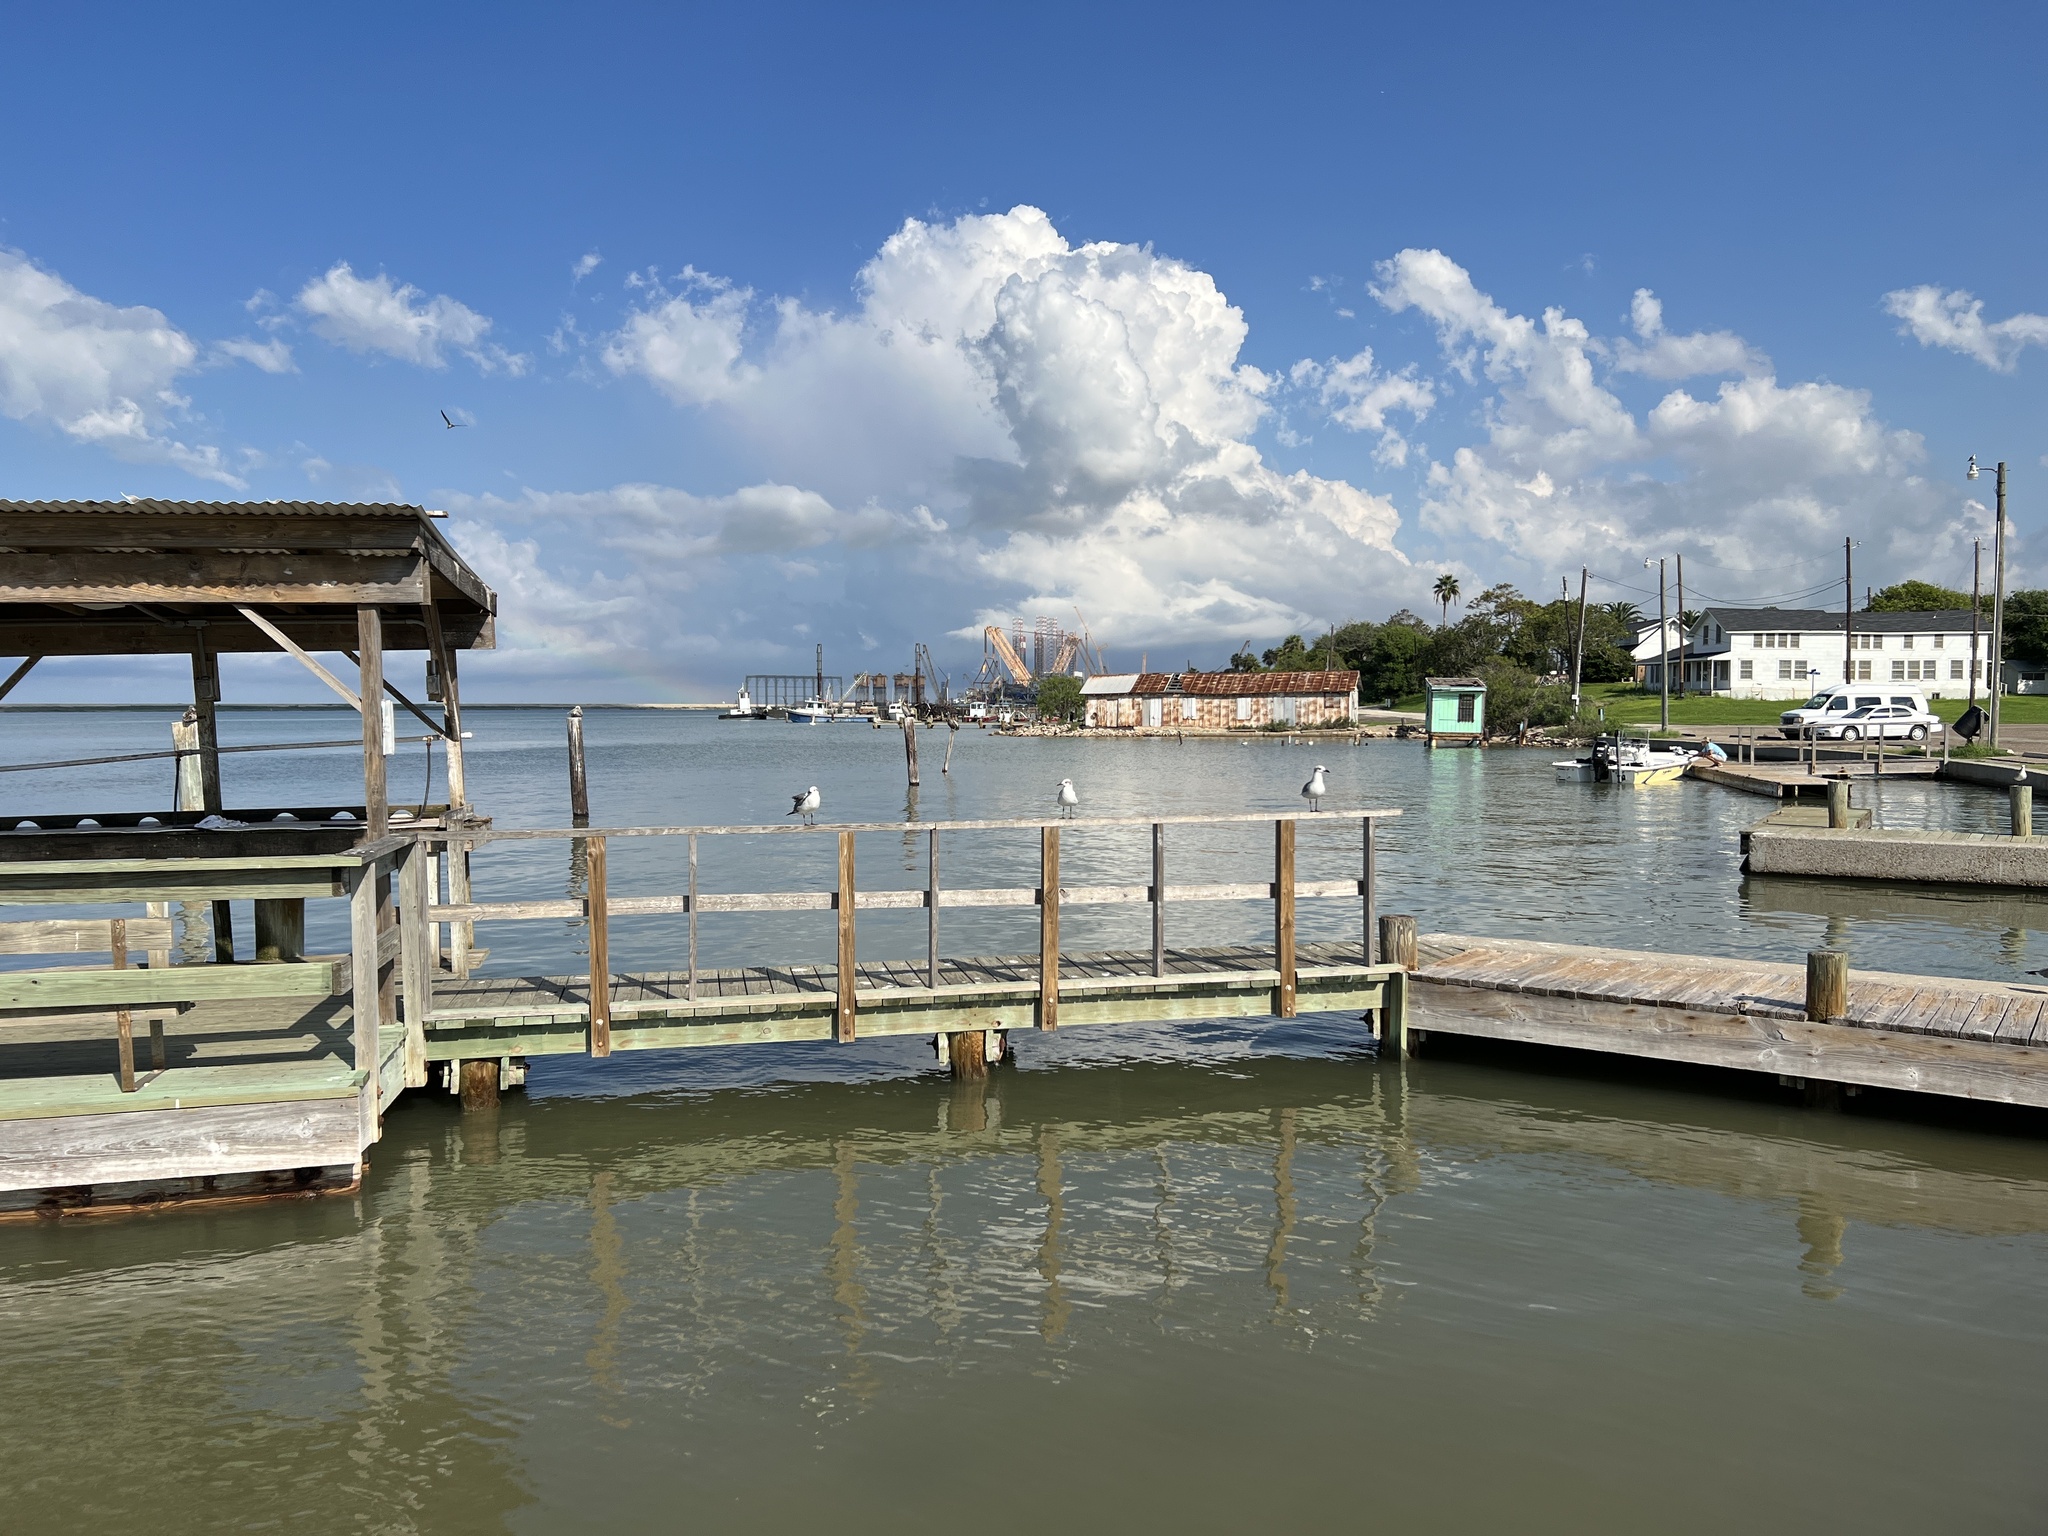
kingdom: Animalia
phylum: Chordata
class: Aves
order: Charadriiformes
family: Laridae
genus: Leucophaeus
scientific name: Leucophaeus atricilla
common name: Laughing gull
